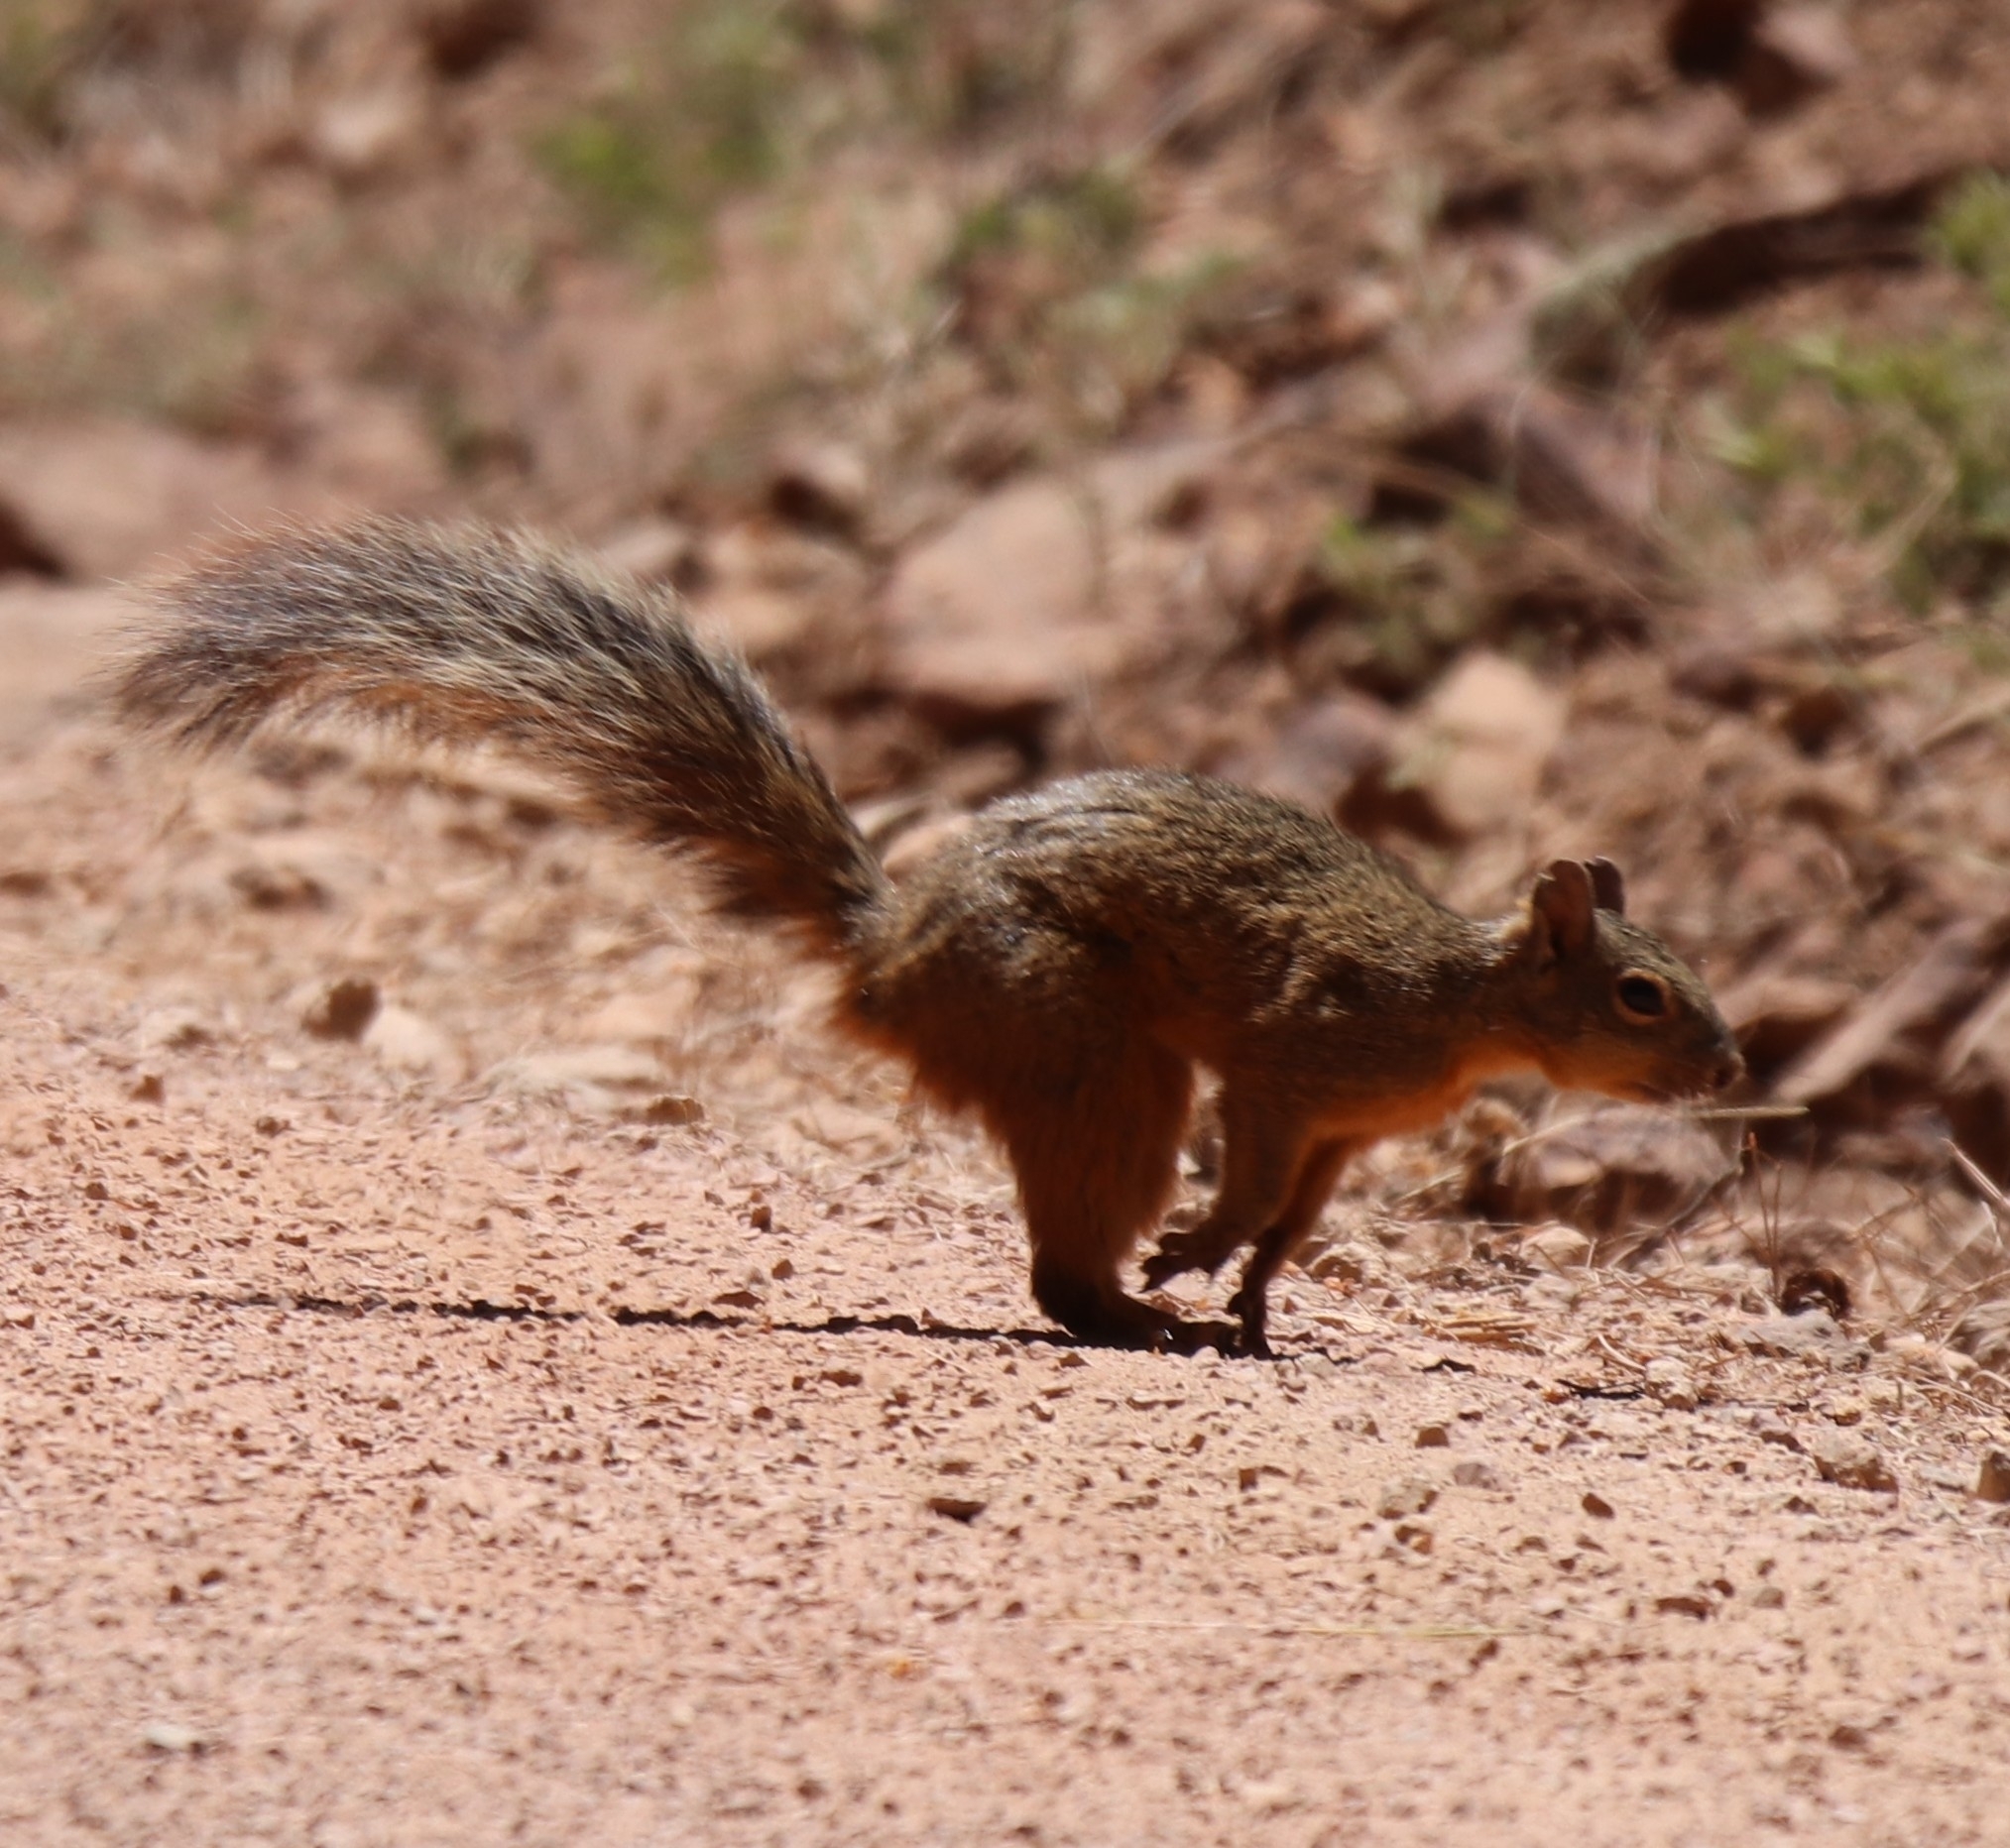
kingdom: Animalia
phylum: Chordata
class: Mammalia
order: Rodentia
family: Sciuridae
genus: Sciurus
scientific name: Sciurus nayaritensis
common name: Mexican fox squirrel
